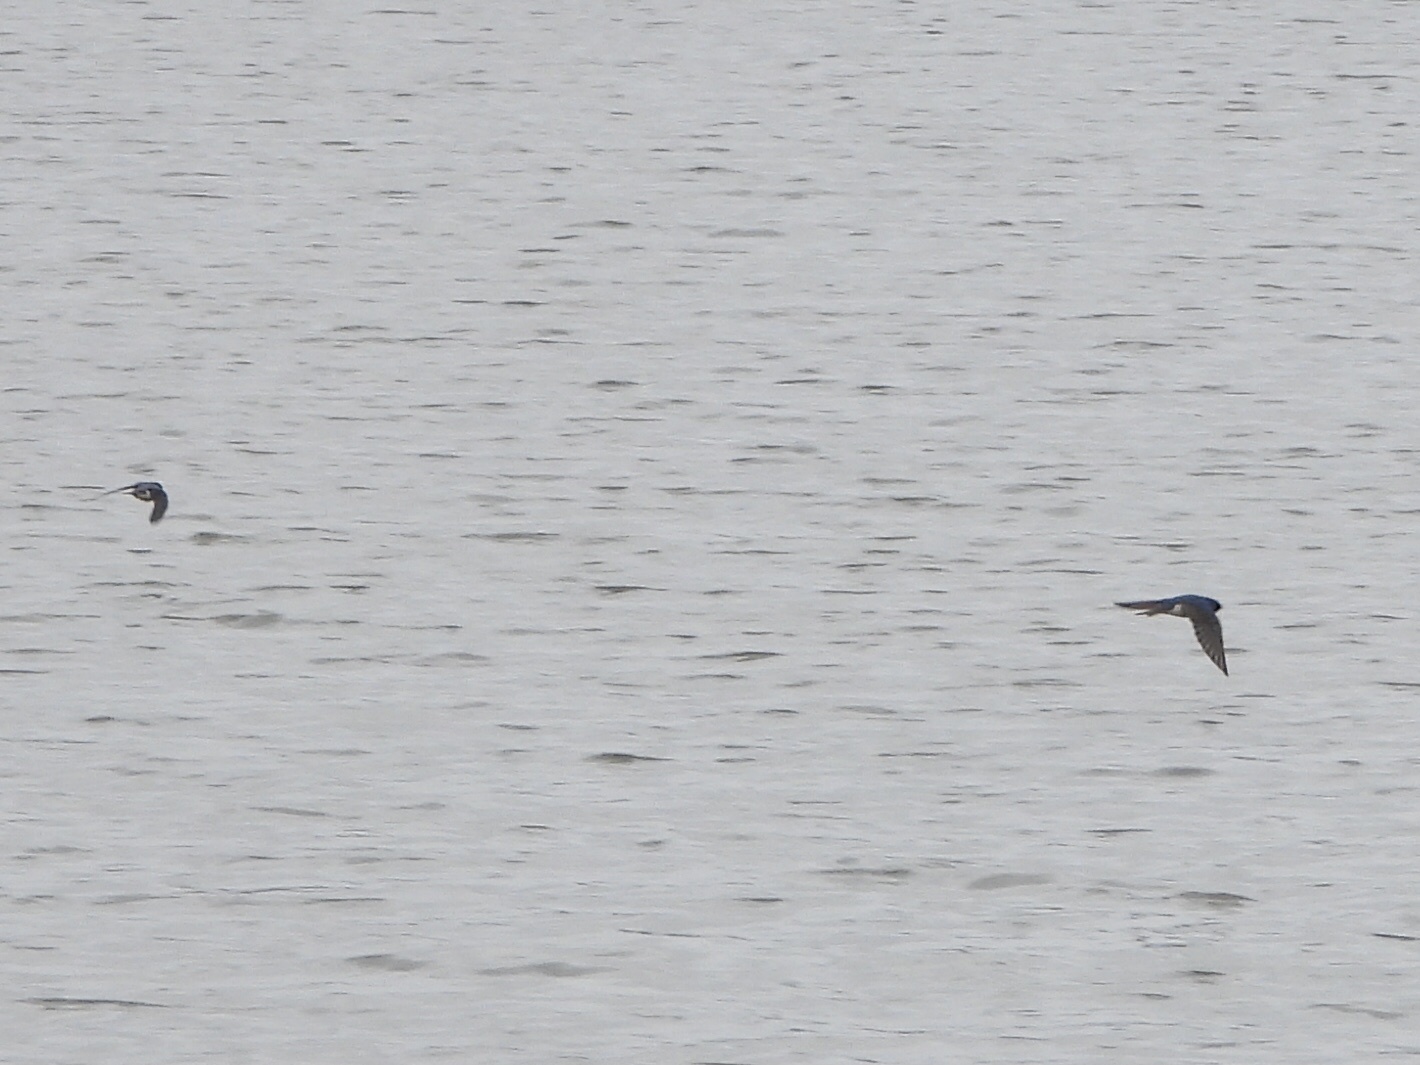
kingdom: Animalia
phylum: Chordata
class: Aves
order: Passeriformes
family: Hirundinidae
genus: Tachycineta
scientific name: Tachycineta bicolor
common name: Tree swallow
